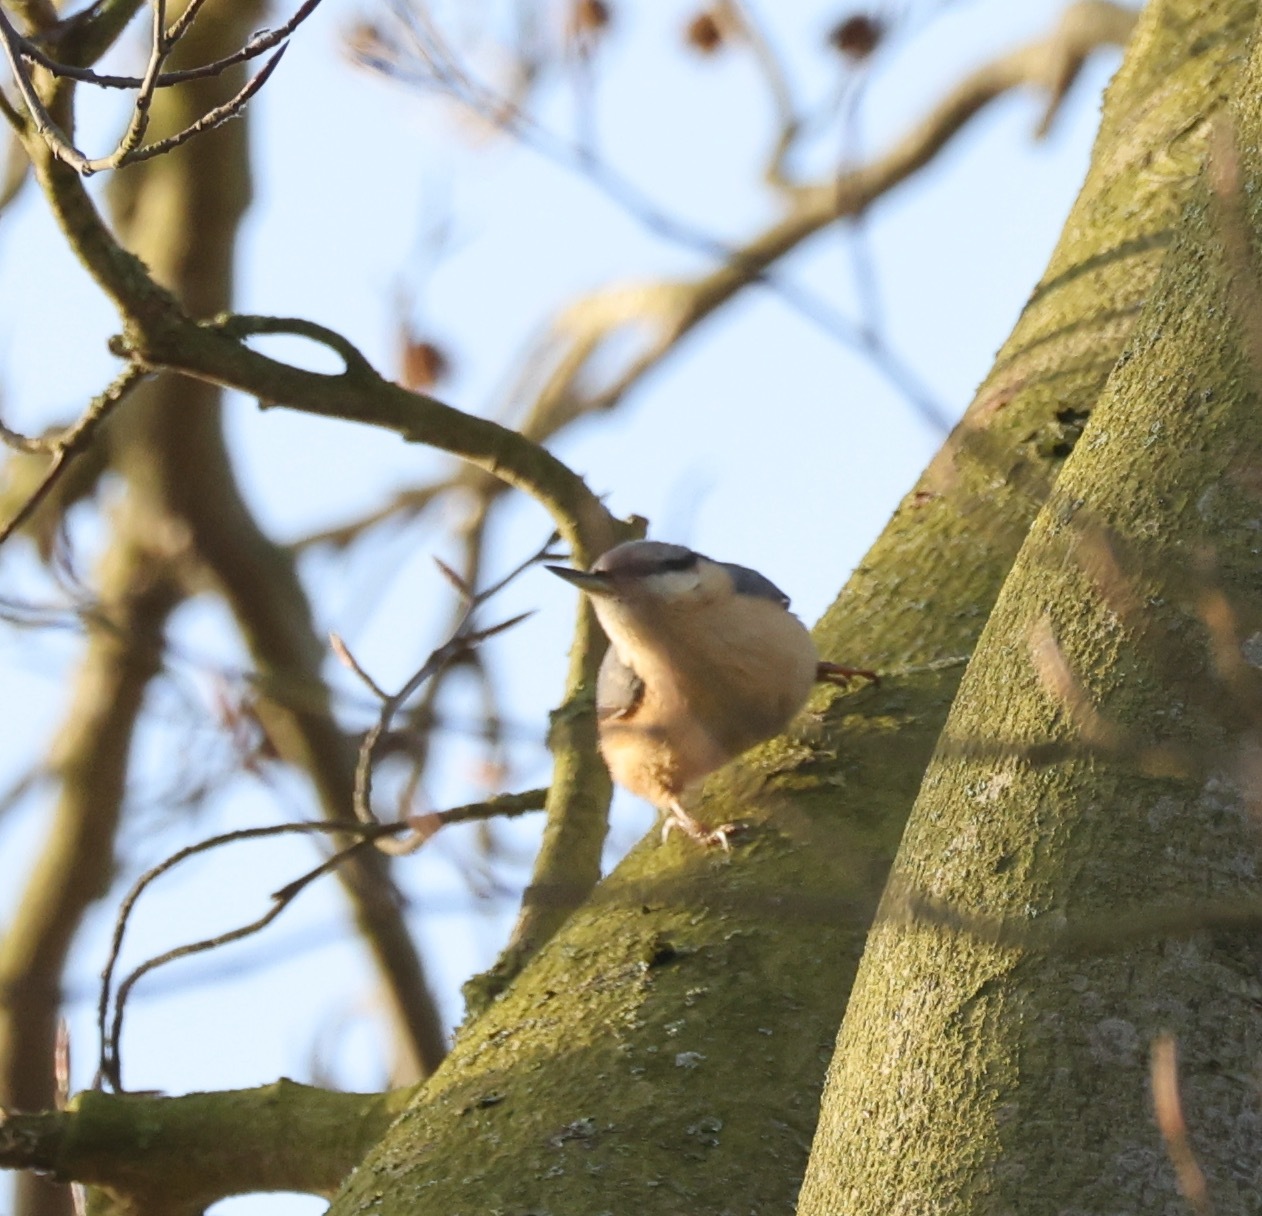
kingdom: Animalia
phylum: Chordata
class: Aves
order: Passeriformes
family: Sittidae
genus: Sitta
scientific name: Sitta europaea
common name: Eurasian nuthatch
